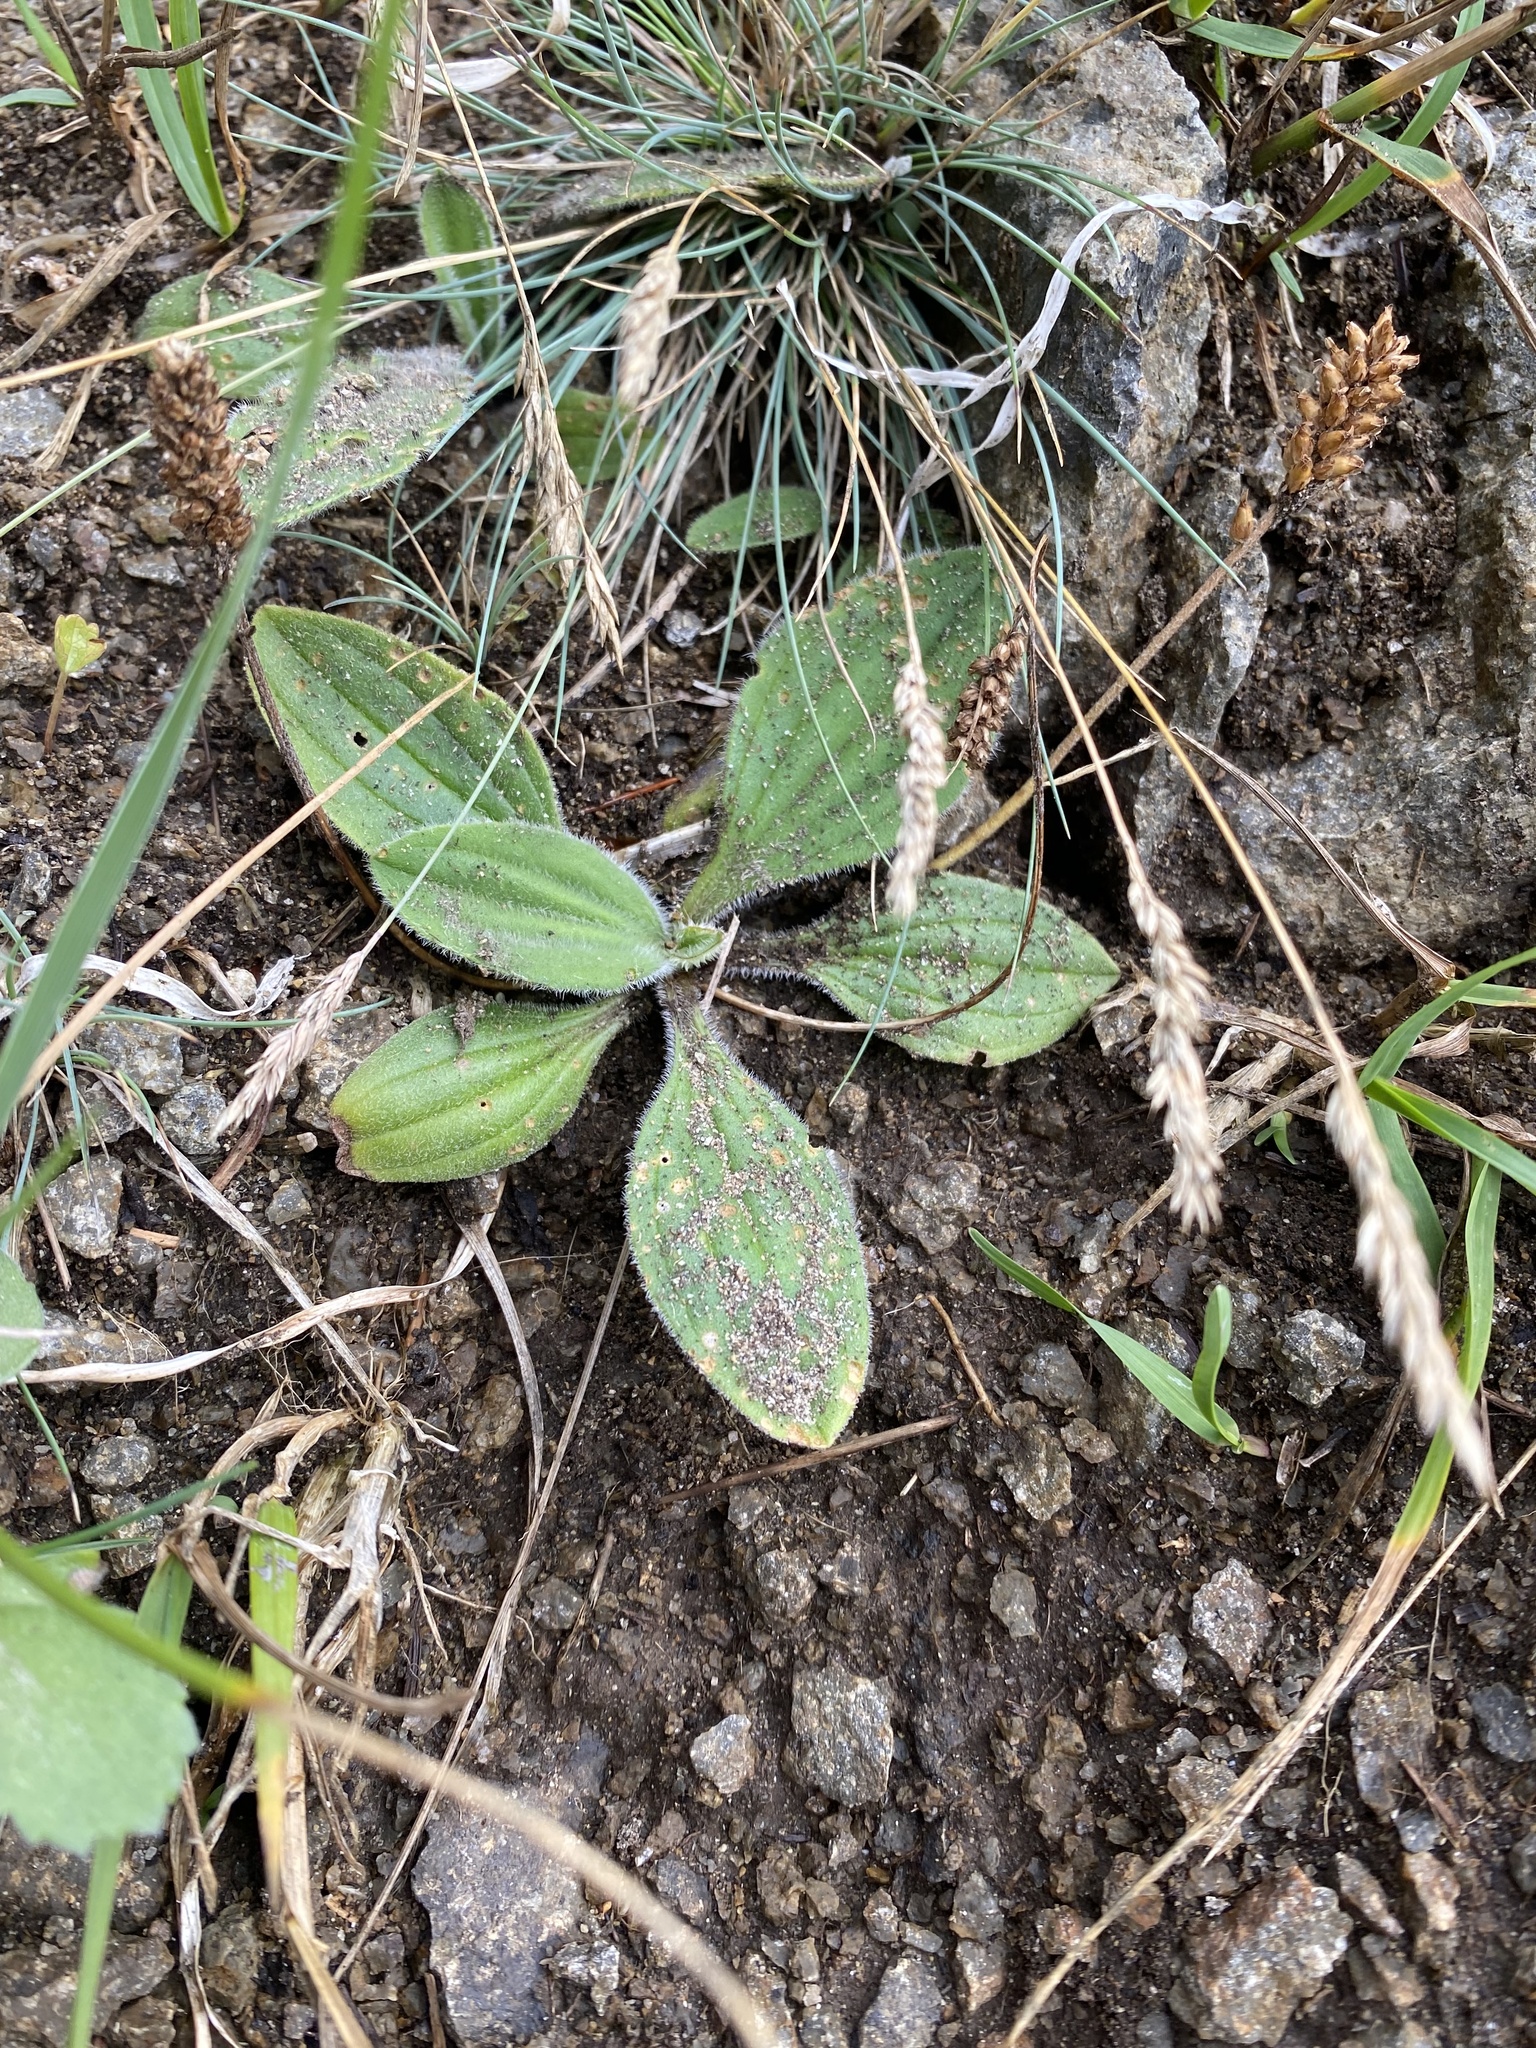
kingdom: Plantae
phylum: Tracheophyta
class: Magnoliopsida
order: Lamiales
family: Plantaginaceae
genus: Plantago
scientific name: Plantago camtschatica
